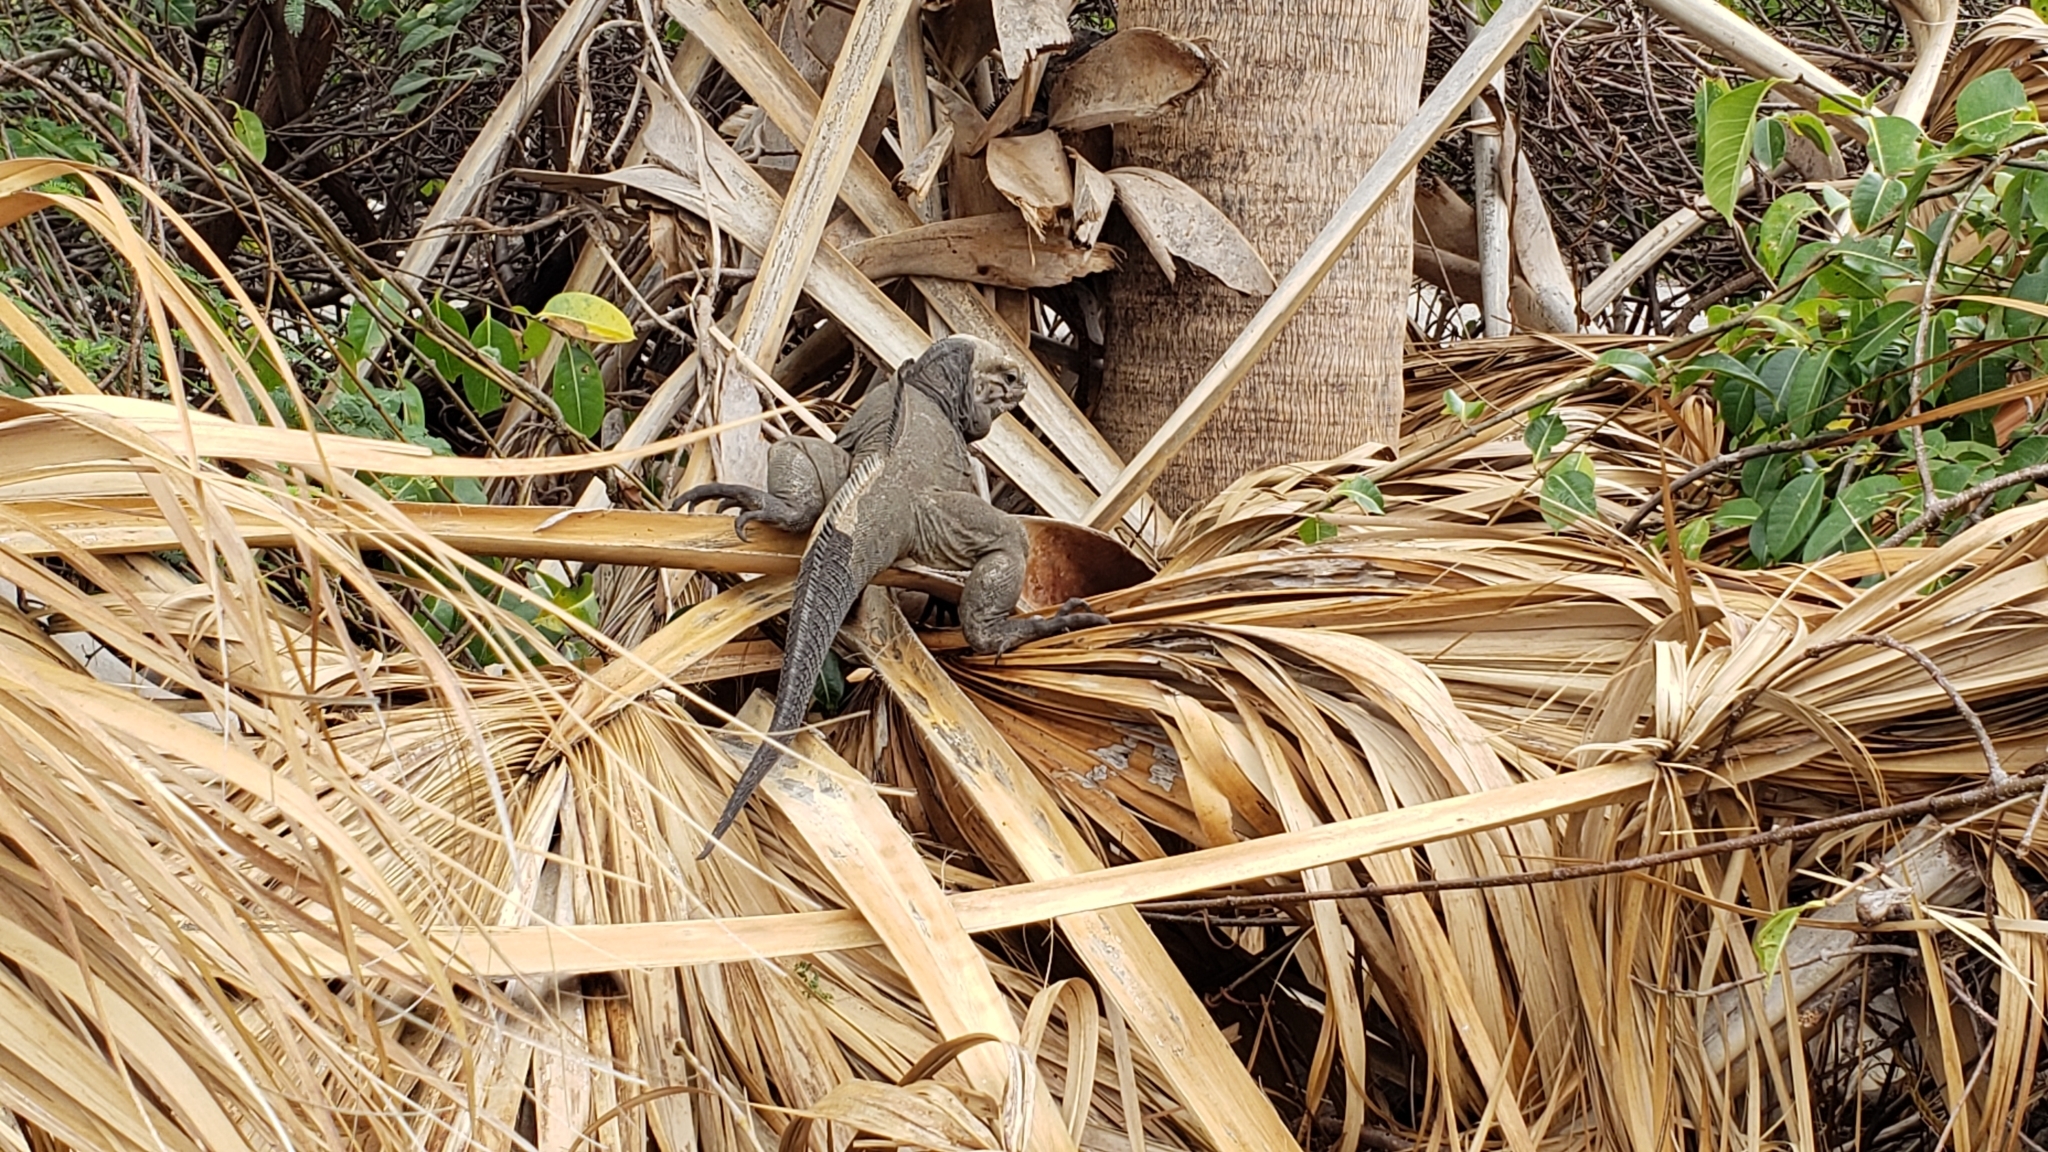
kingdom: Animalia
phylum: Chordata
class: Squamata
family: Iguanidae
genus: Cyclura
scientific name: Cyclura cornuta
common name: Hispaniolan rhinoceros iguana
